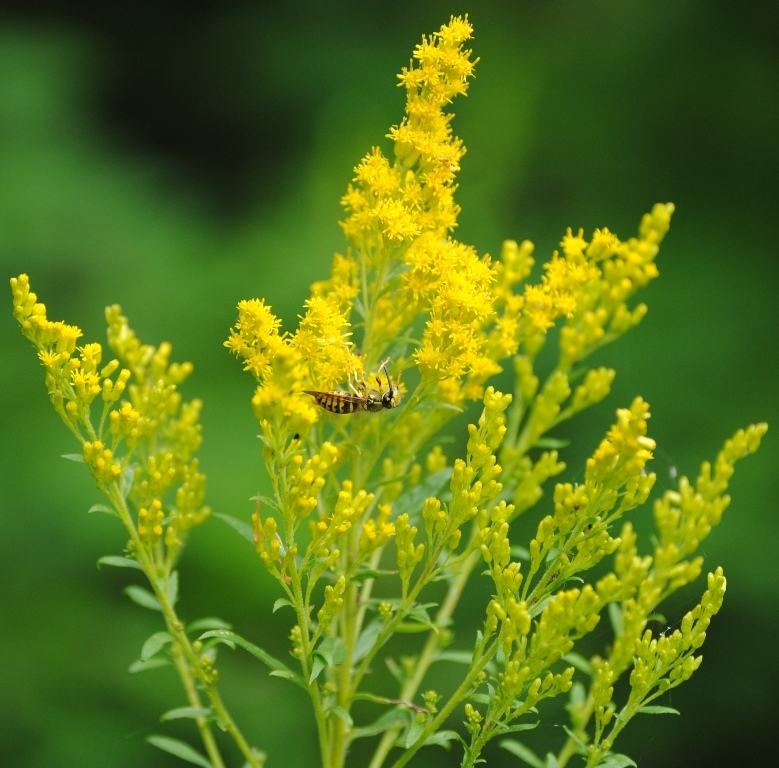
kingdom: Animalia
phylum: Arthropoda
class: Insecta
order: Hymenoptera
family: Vespidae
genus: Dolichovespula
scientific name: Dolichovespula arenaria
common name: Aerial yellowjacket
